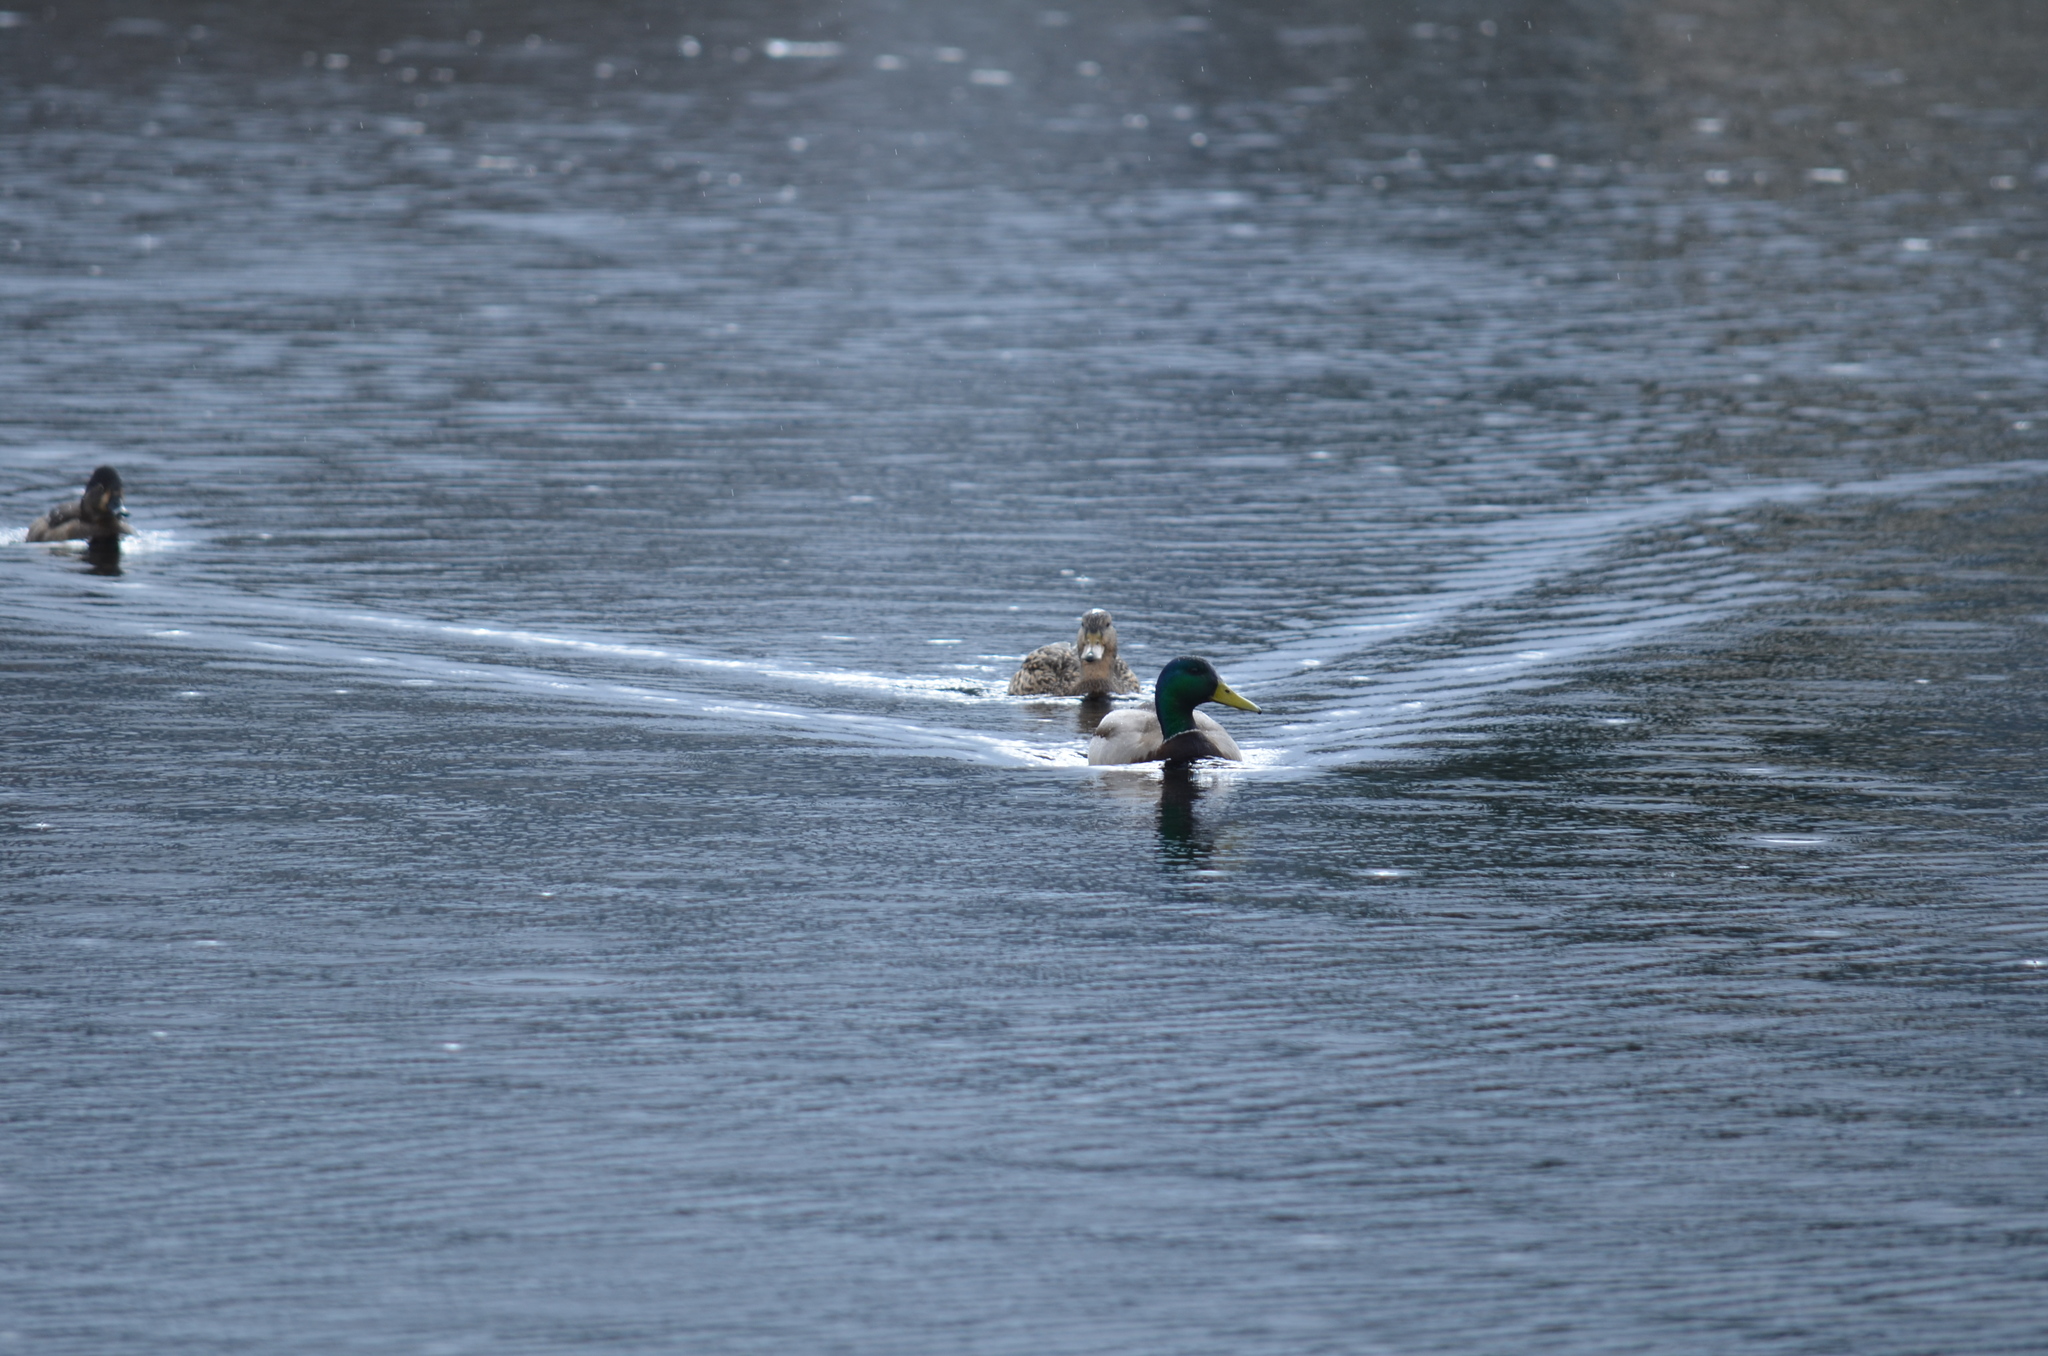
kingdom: Animalia
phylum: Chordata
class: Aves
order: Anseriformes
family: Anatidae
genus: Anas
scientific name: Anas platyrhynchos
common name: Mallard
